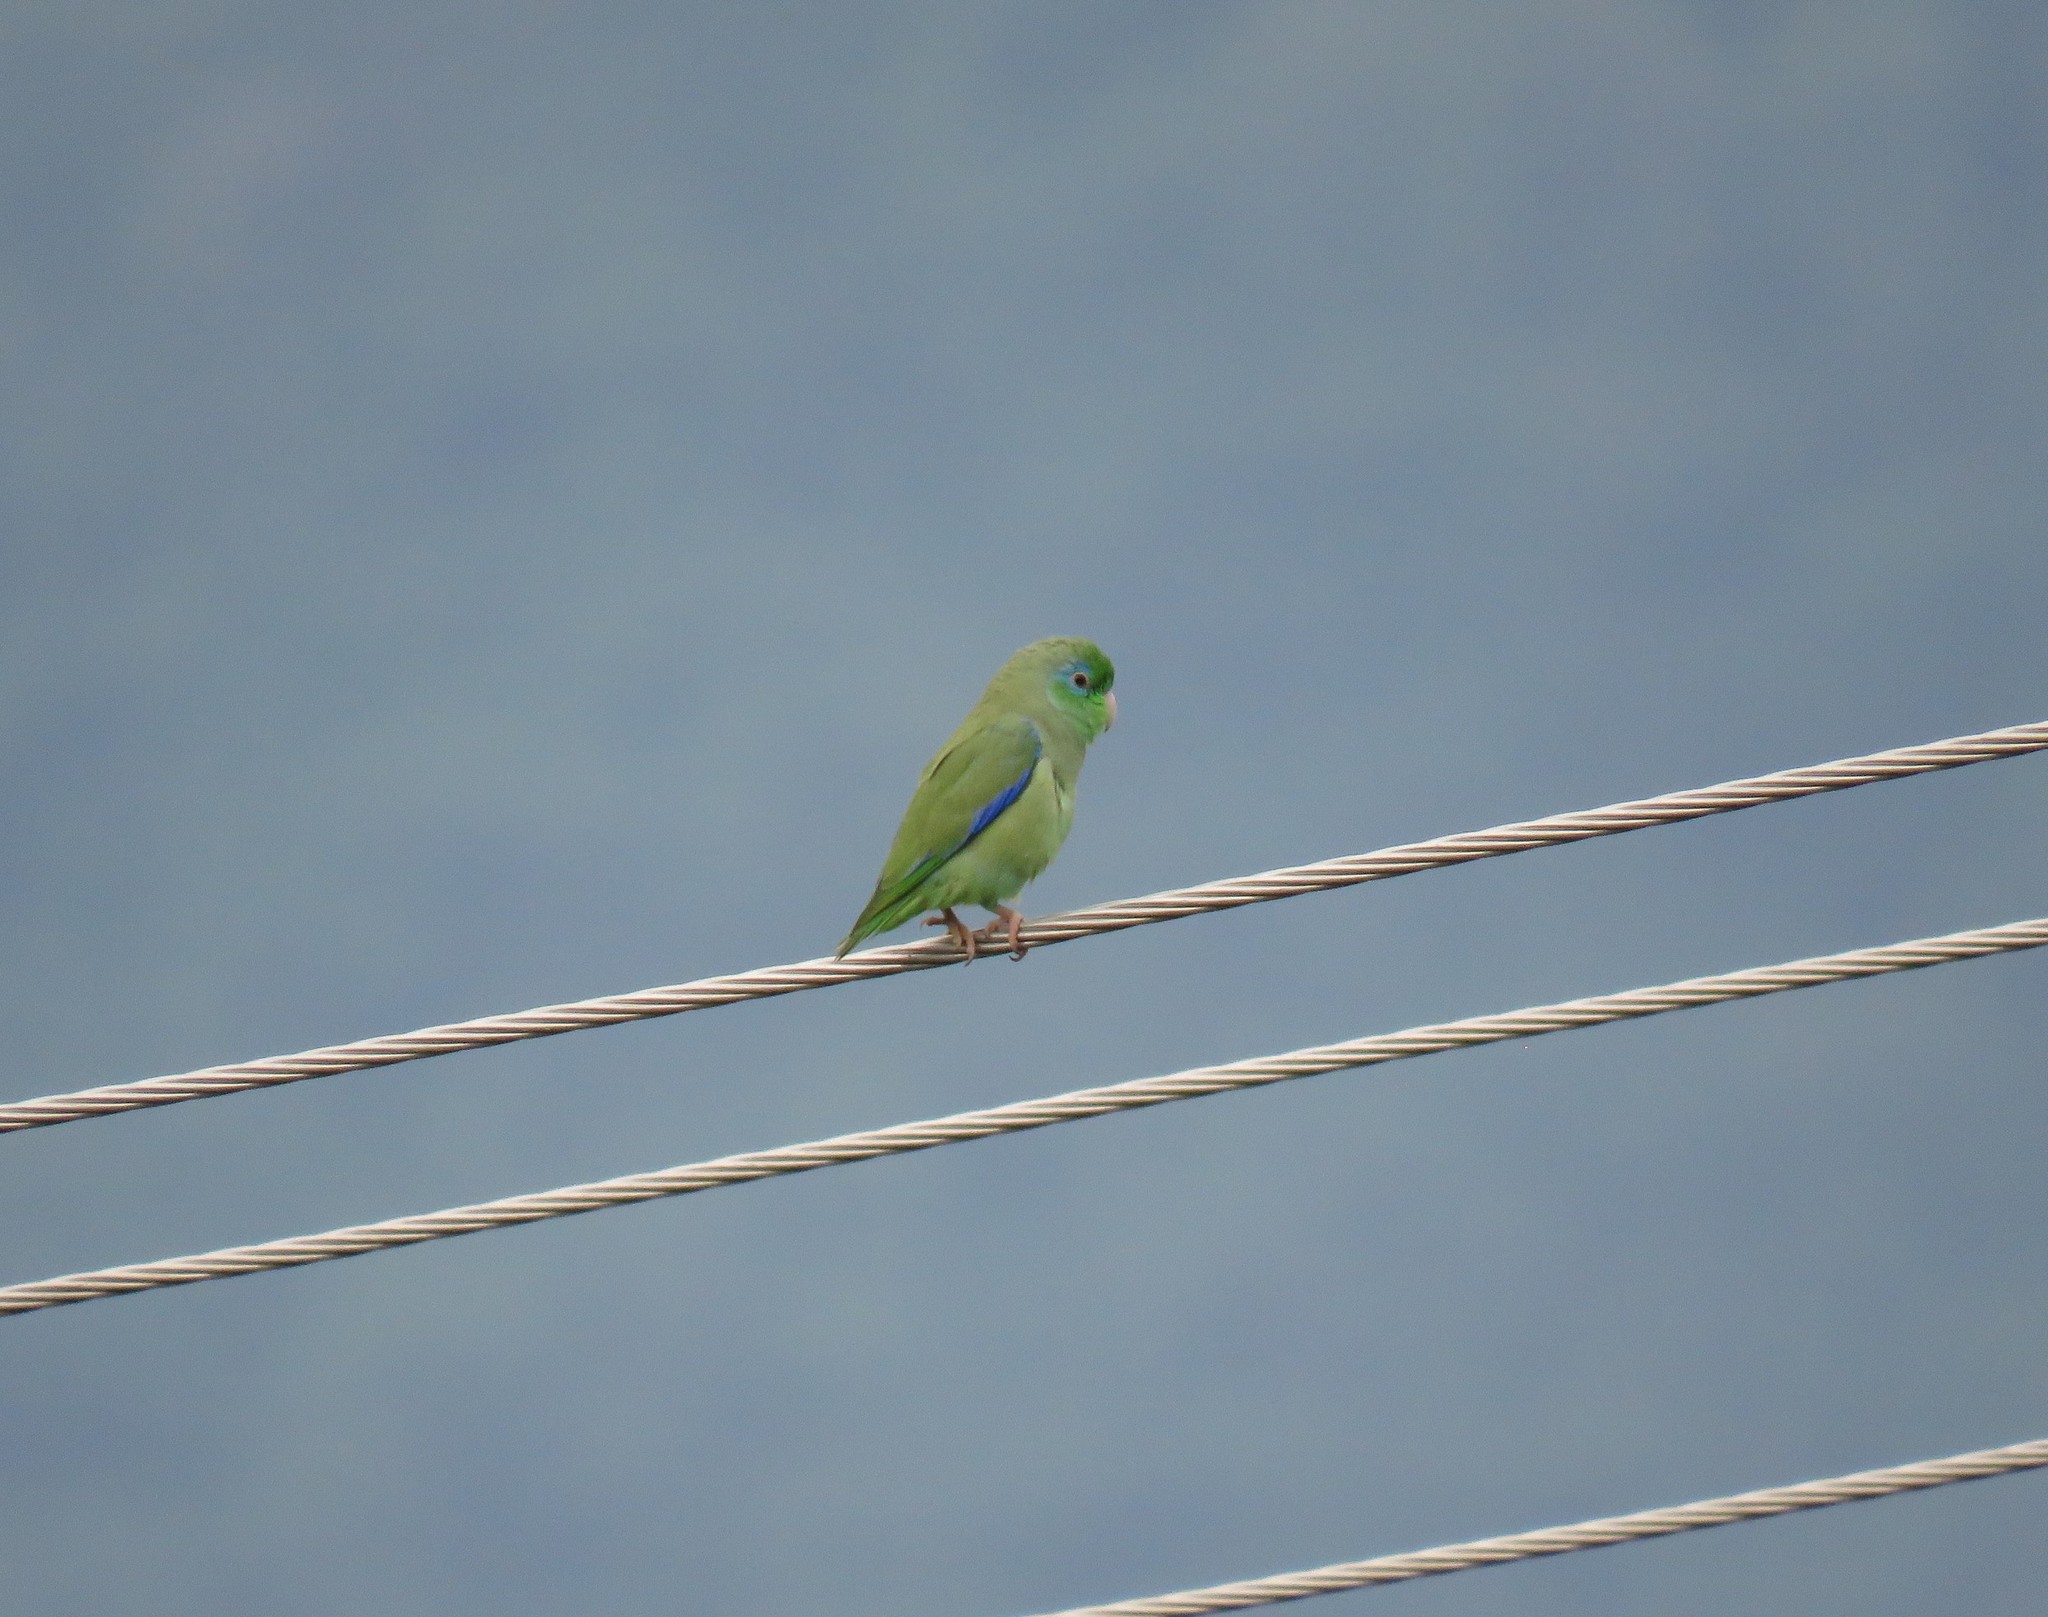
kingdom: Animalia
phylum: Chordata
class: Aves
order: Psittaciformes
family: Psittacidae
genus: Forpus
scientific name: Forpus conspicillatus
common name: Spectacled parrotlet
